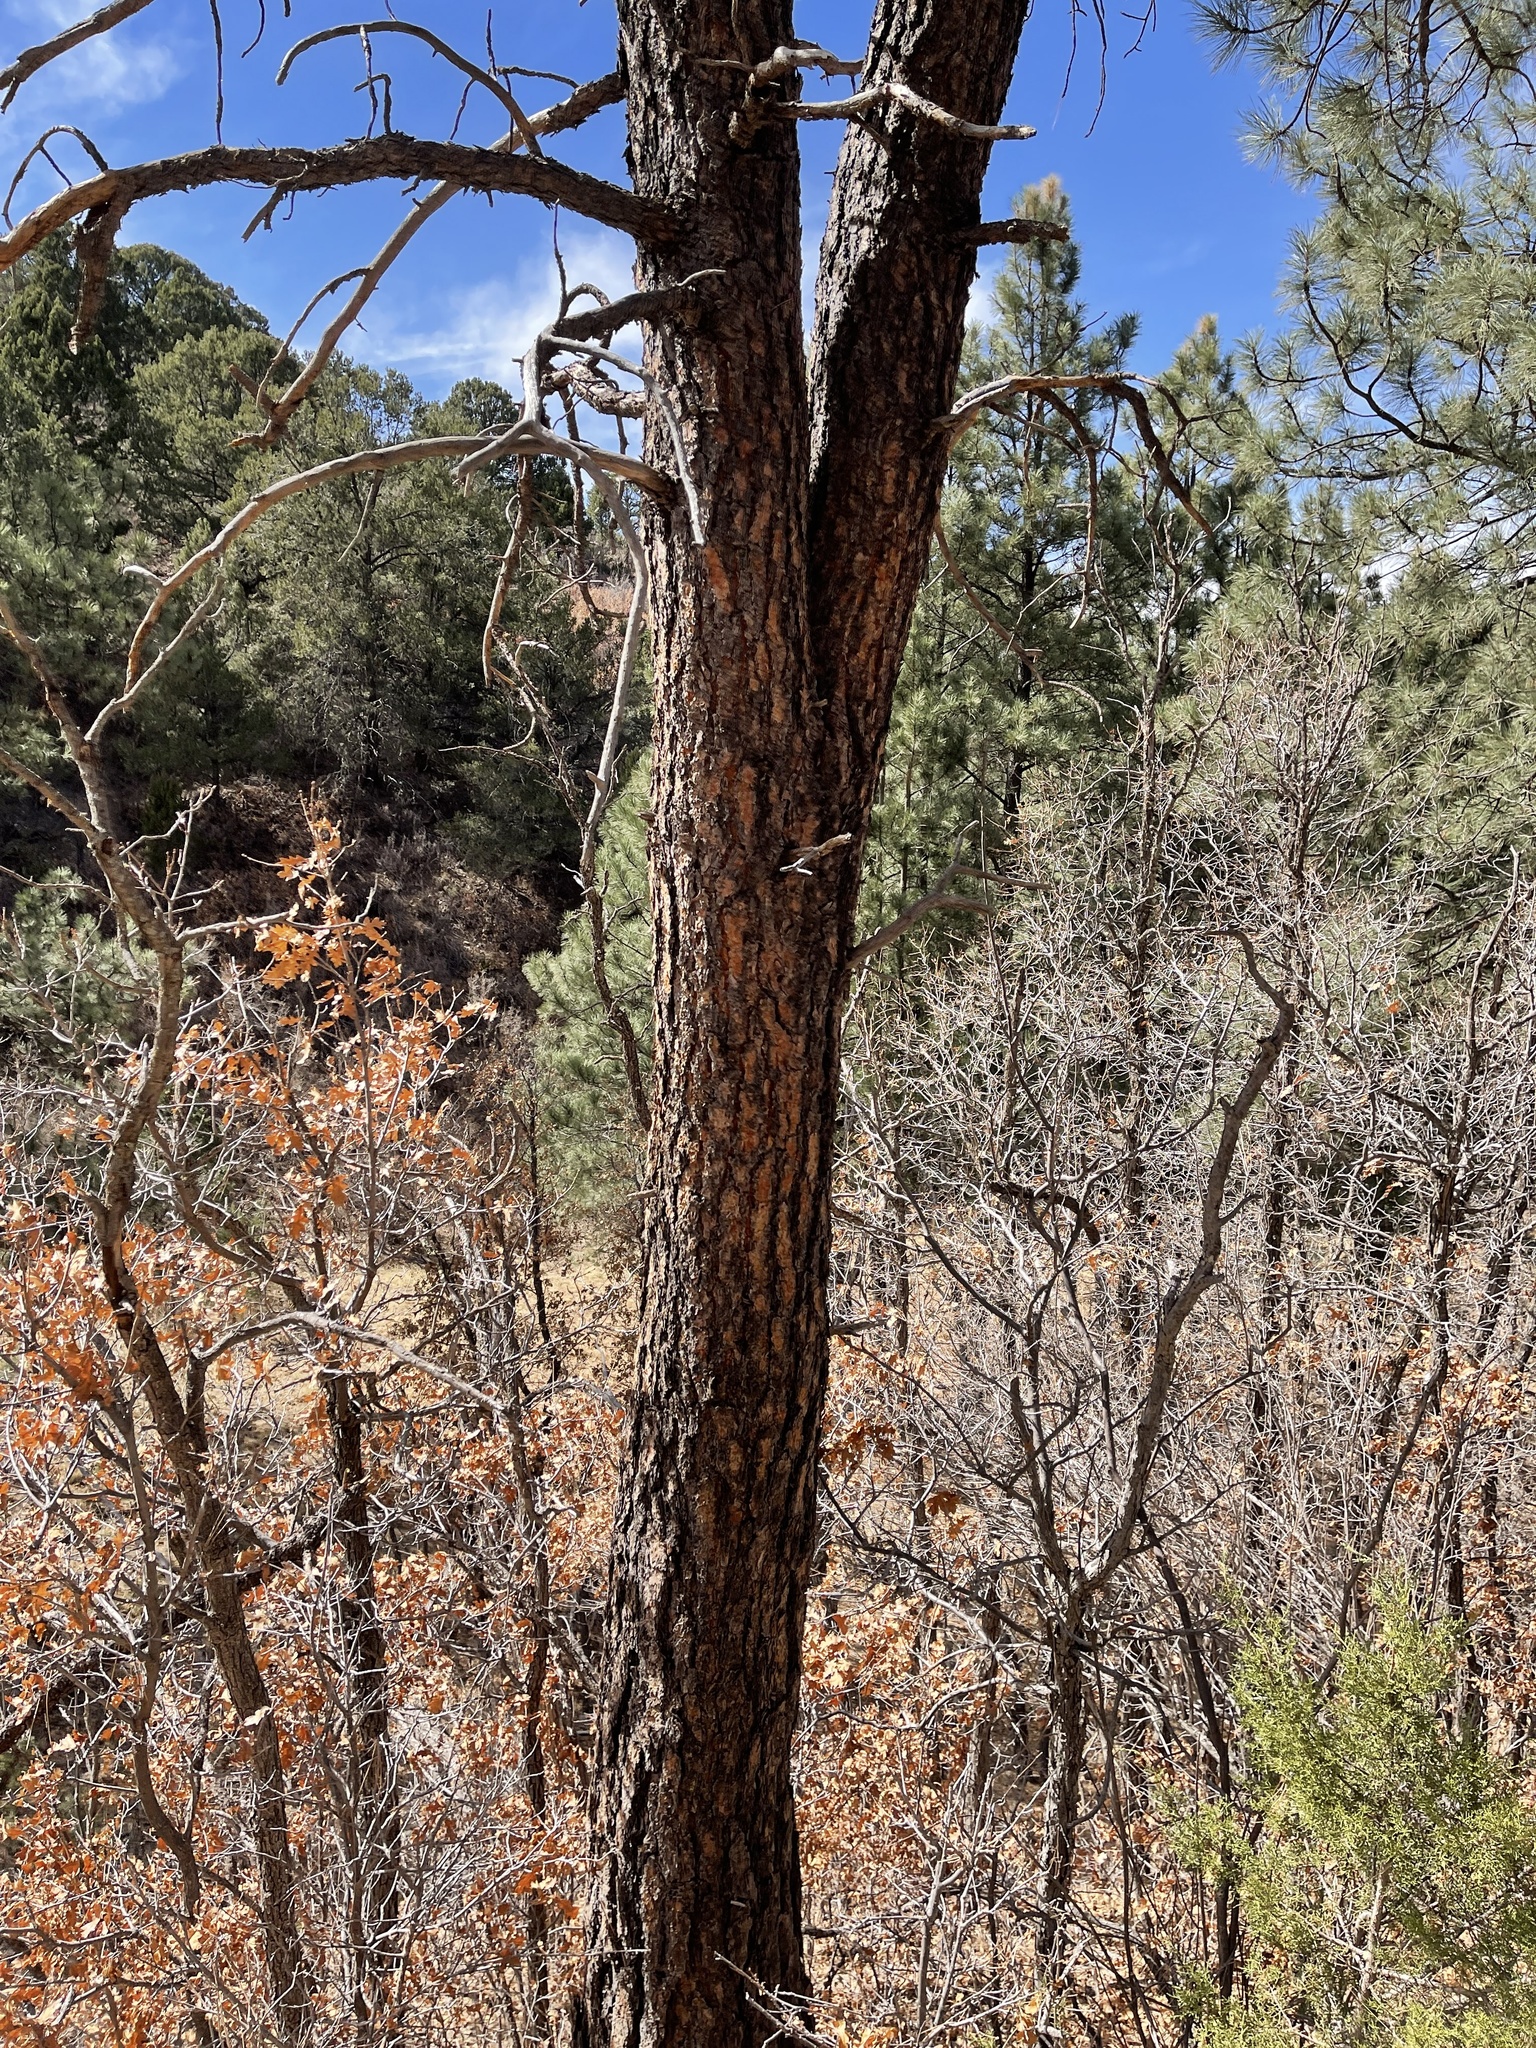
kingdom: Plantae
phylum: Tracheophyta
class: Pinopsida
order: Pinales
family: Pinaceae
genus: Pinus
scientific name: Pinus ponderosa
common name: Western yellow-pine
